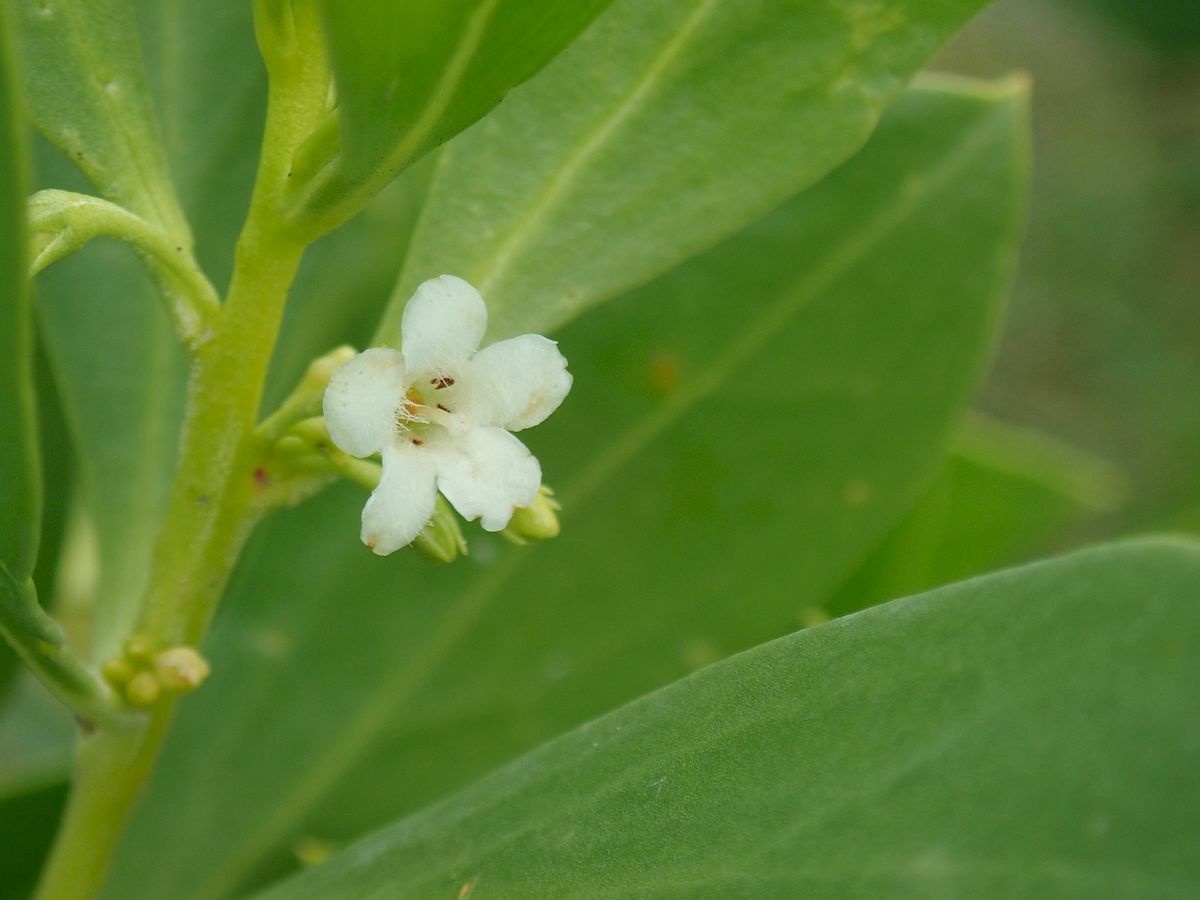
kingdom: Plantae
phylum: Tracheophyta
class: Magnoliopsida
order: Lamiales
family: Scrophulariaceae
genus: Myoporum
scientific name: Myoporum boninense
